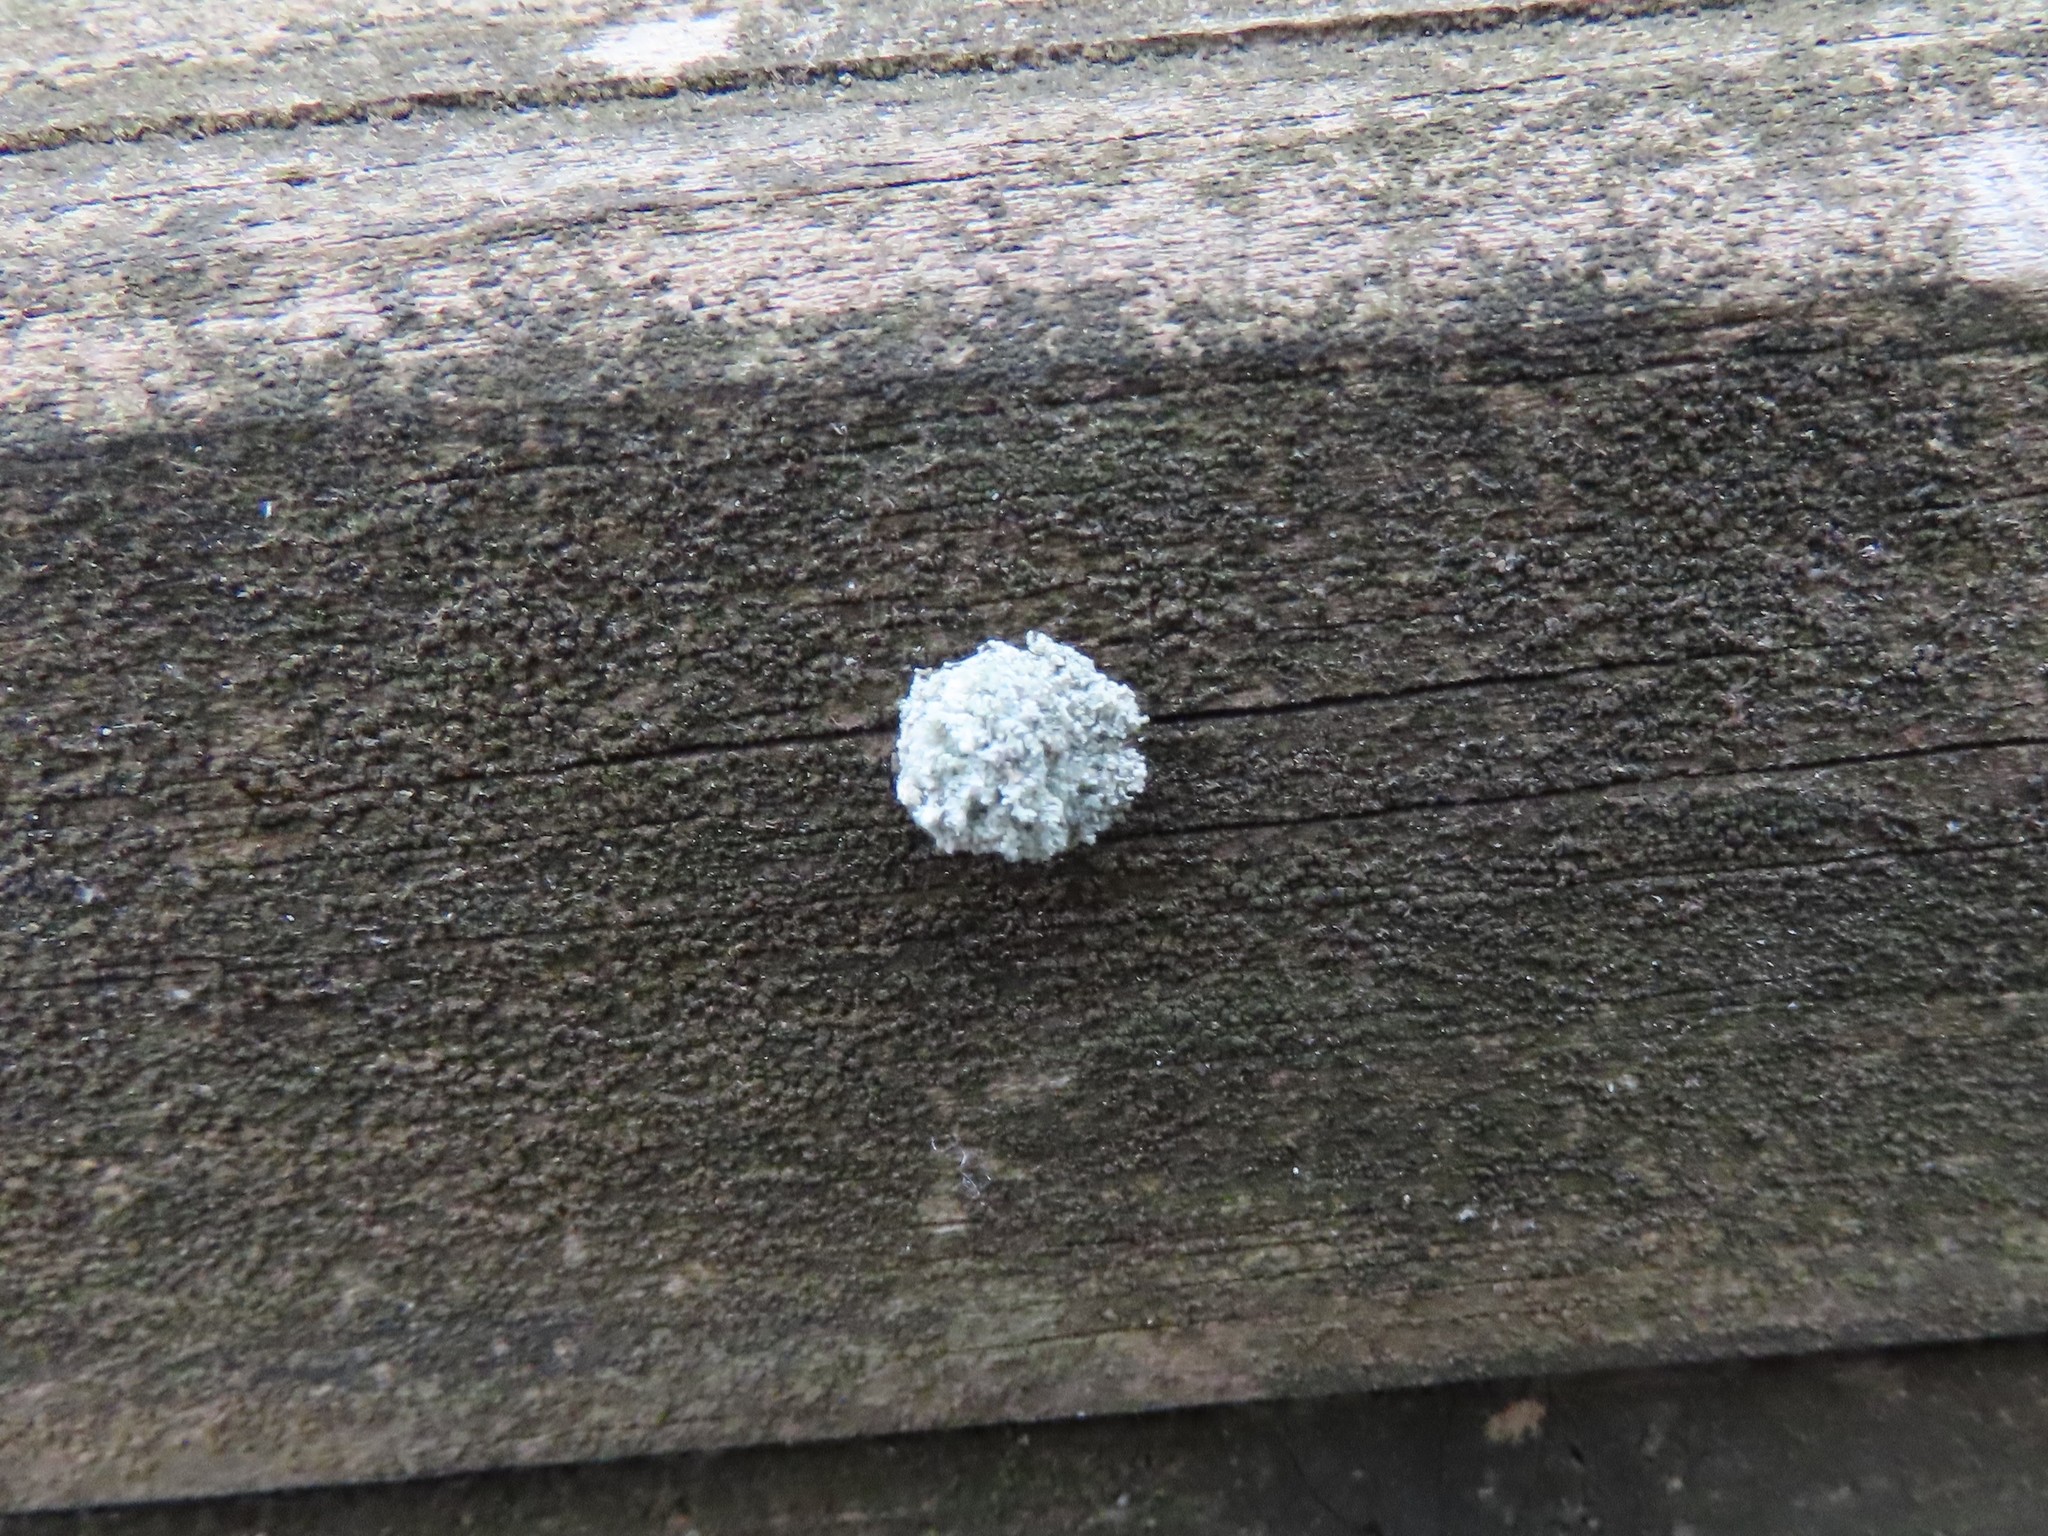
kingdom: Animalia
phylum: Arthropoda
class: Insecta
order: Neuroptera
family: Chrysopidae
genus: Leucochrysa
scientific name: Leucochrysa pavida
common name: Lichen-carrying green lacewing
